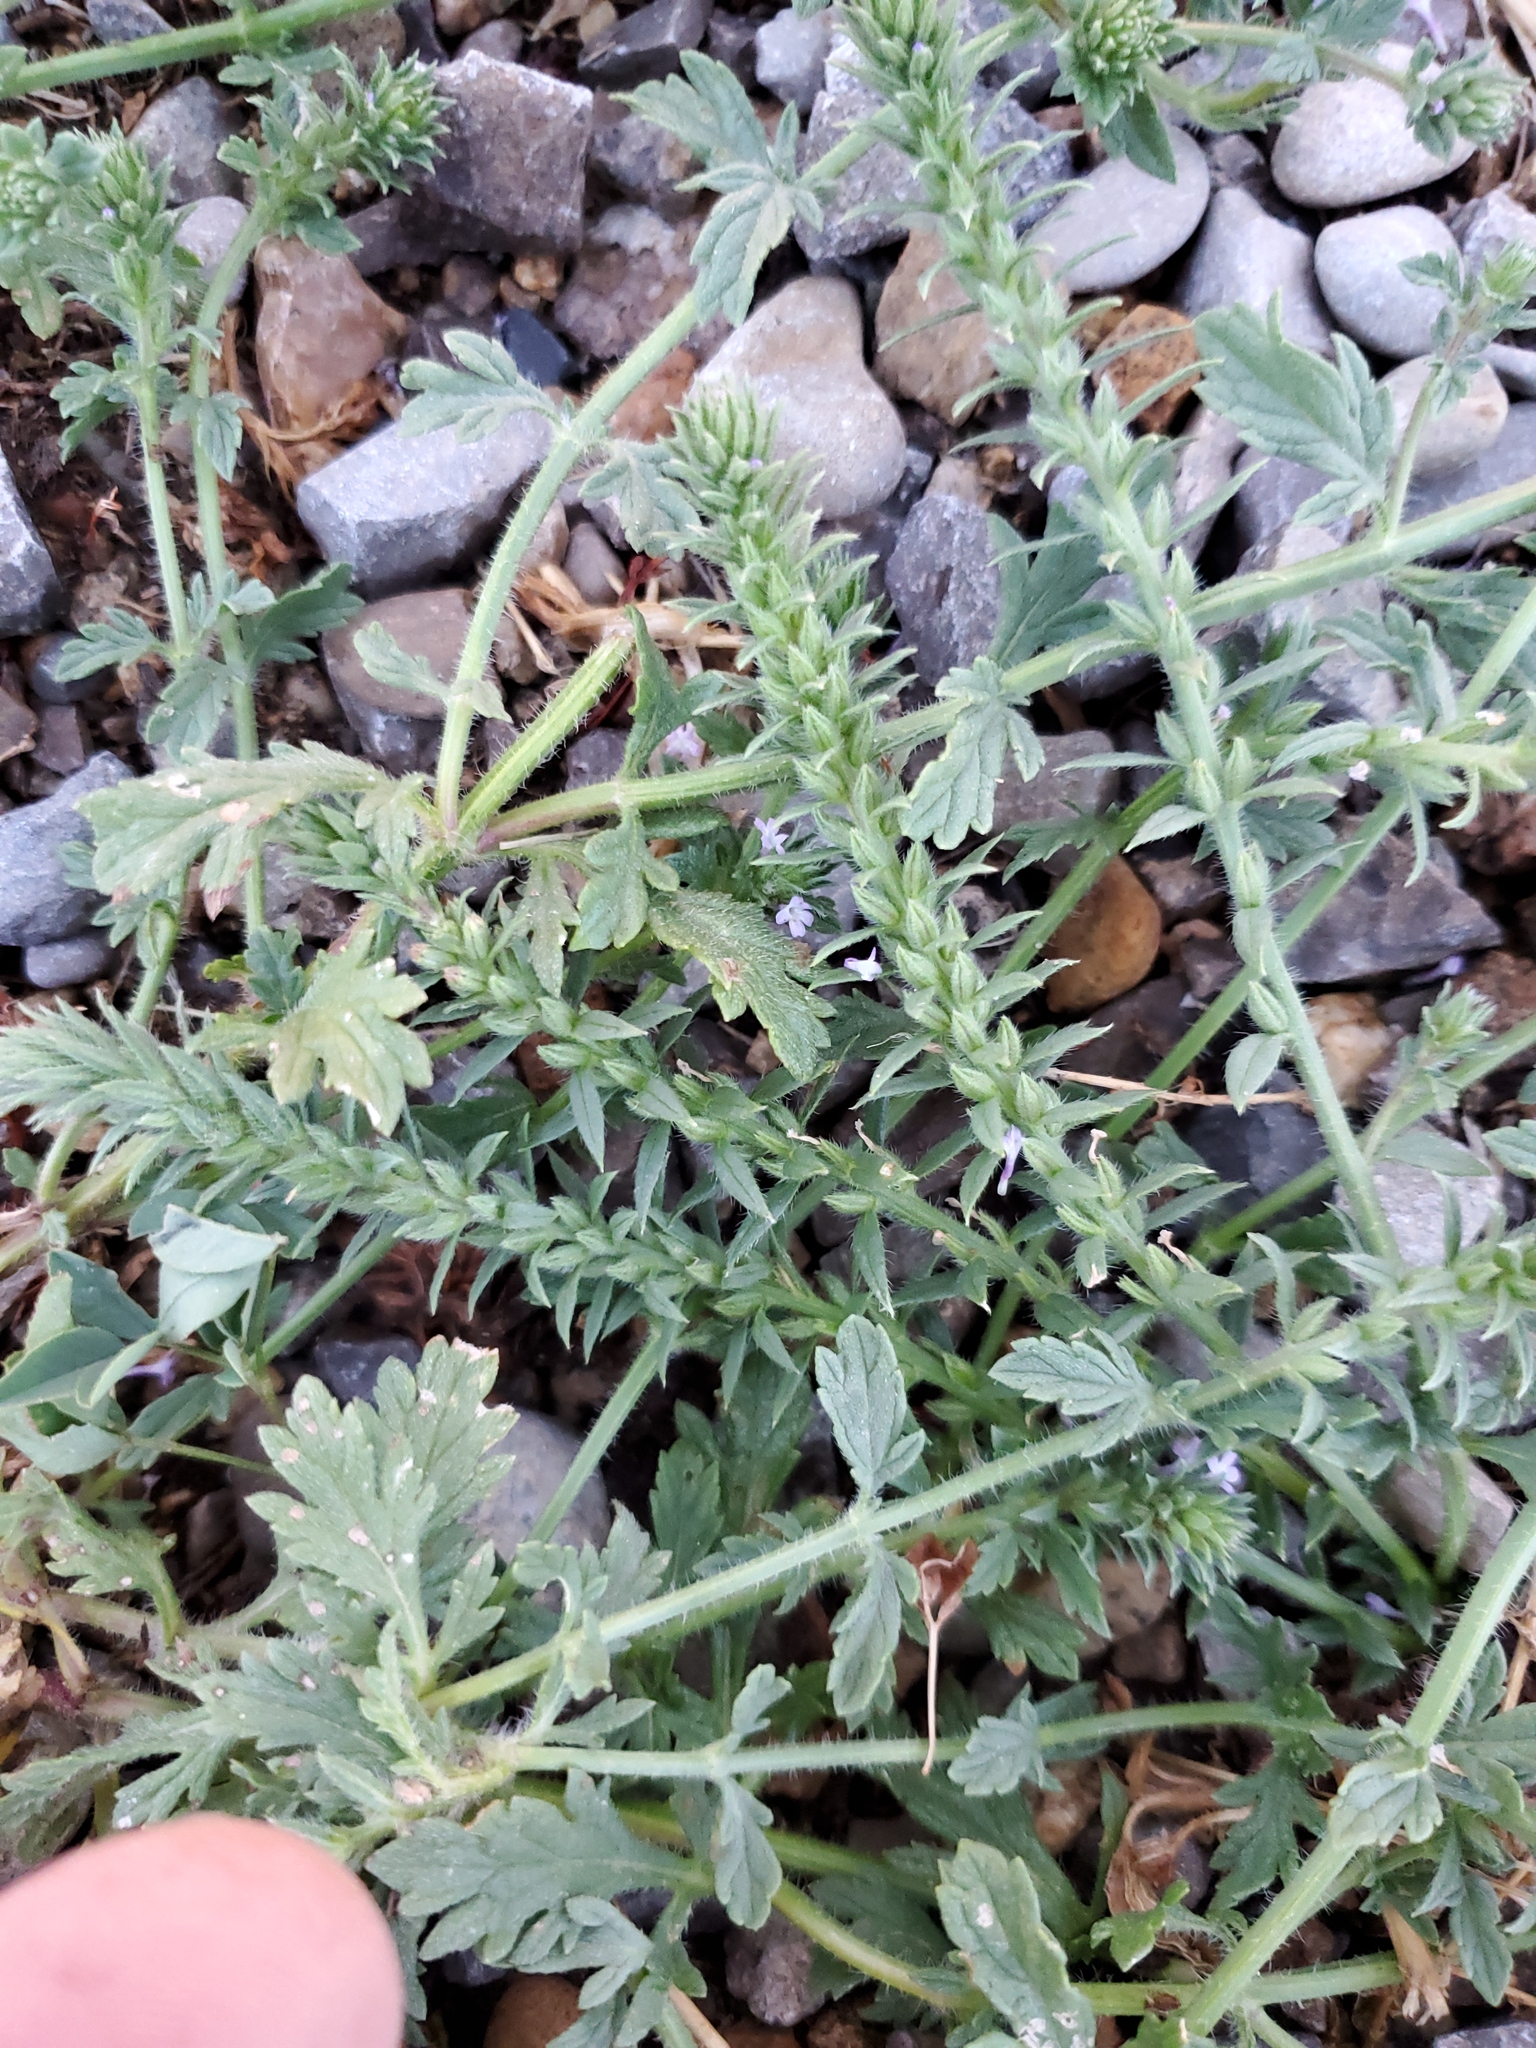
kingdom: Plantae
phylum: Tracheophyta
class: Magnoliopsida
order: Lamiales
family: Verbenaceae
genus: Verbena
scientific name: Verbena bracteata
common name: Bracted vervain
